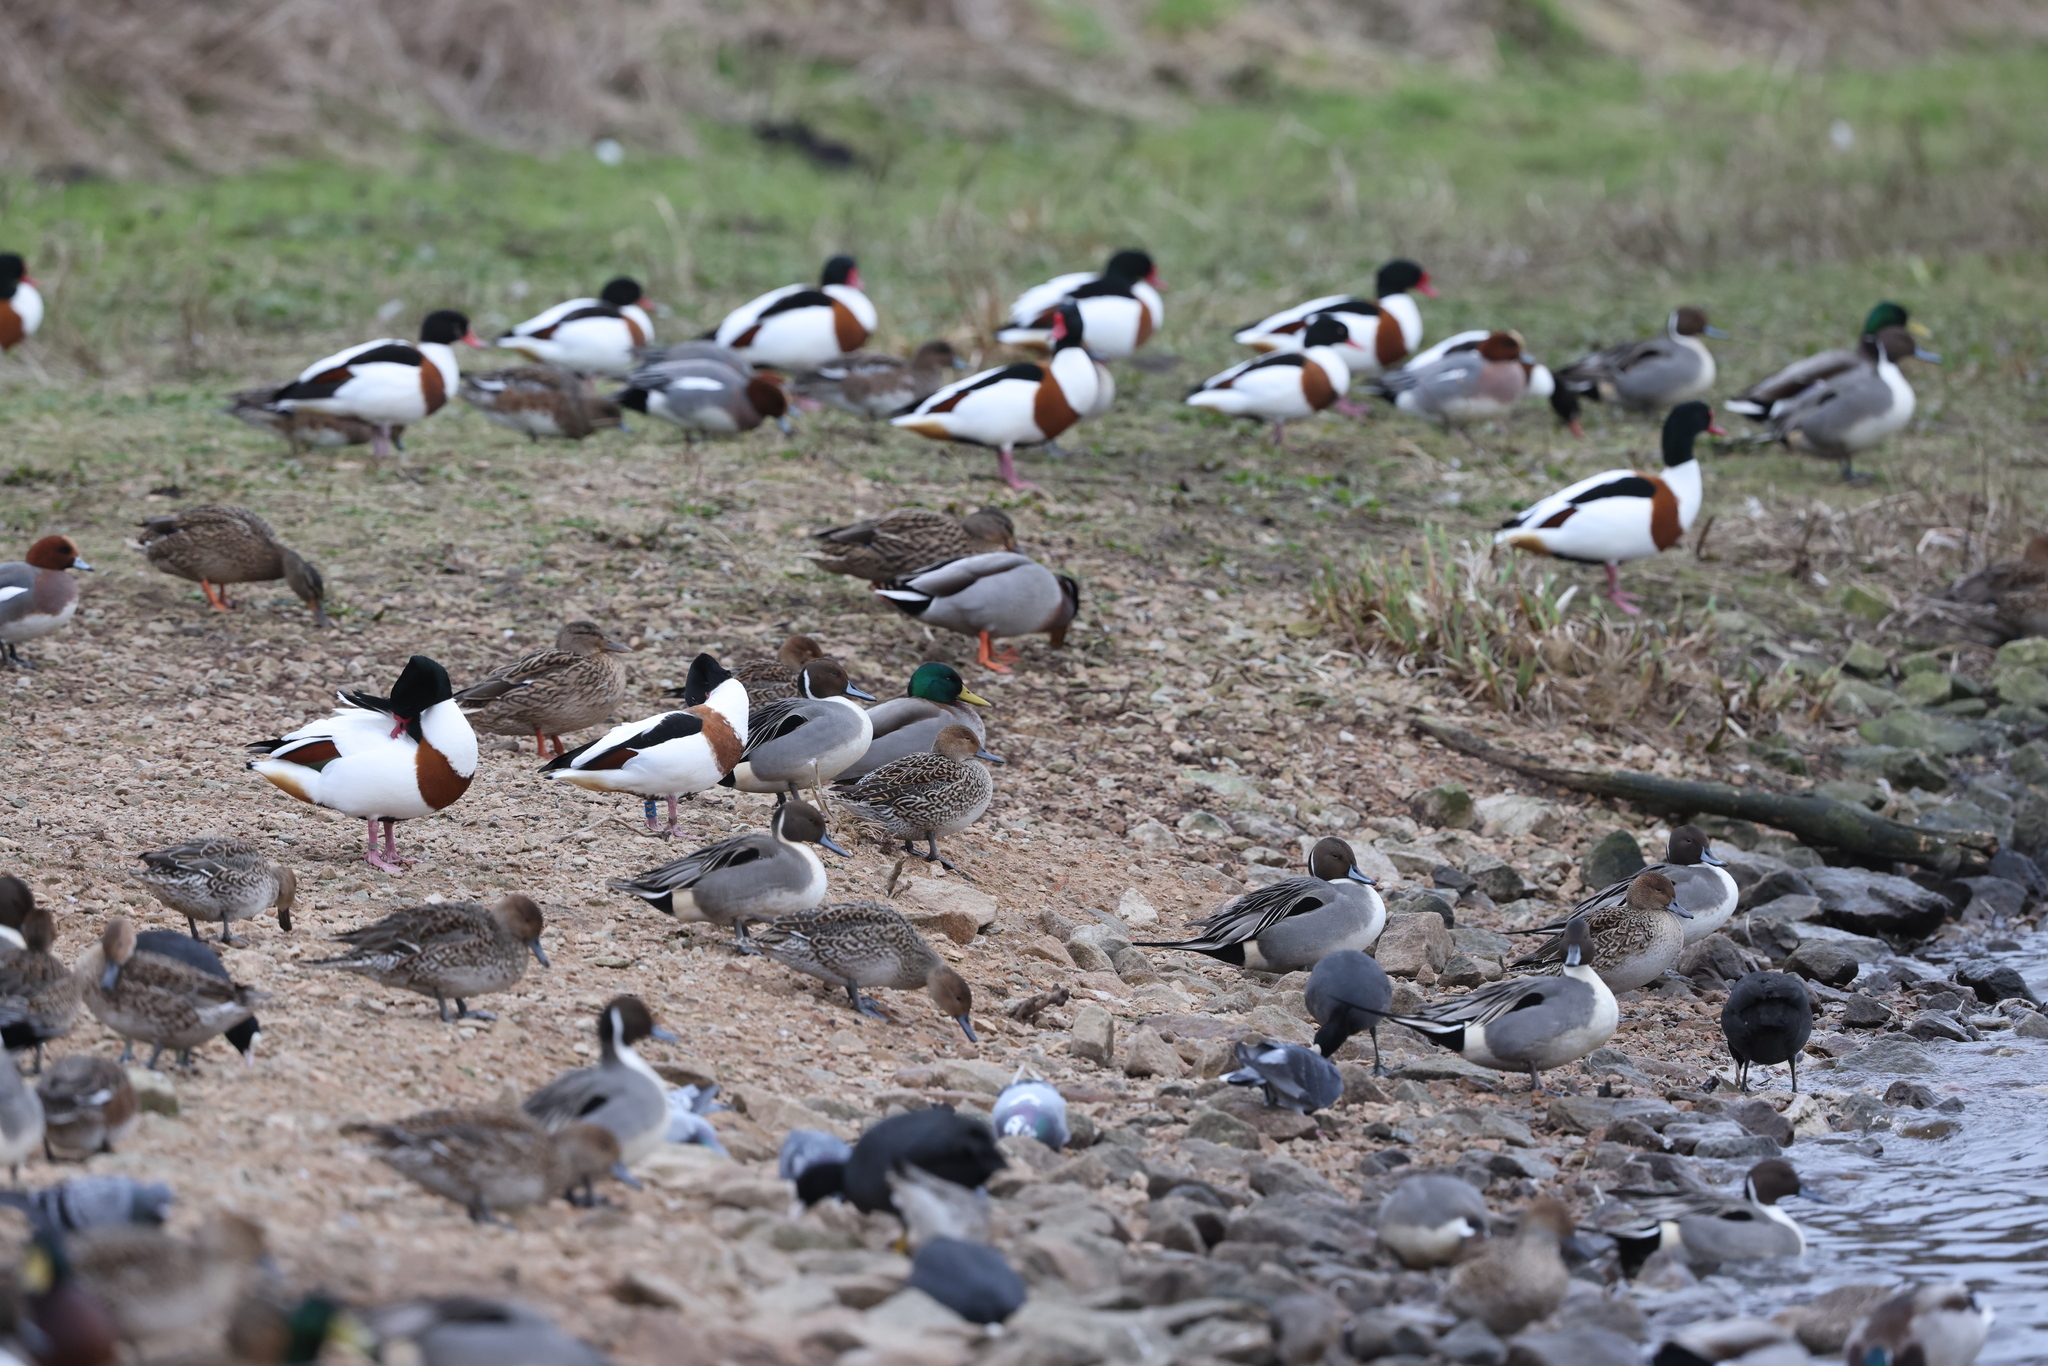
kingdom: Animalia
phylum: Chordata
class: Aves
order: Anseriformes
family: Anatidae
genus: Tadorna
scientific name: Tadorna tadorna
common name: Common shelduck
